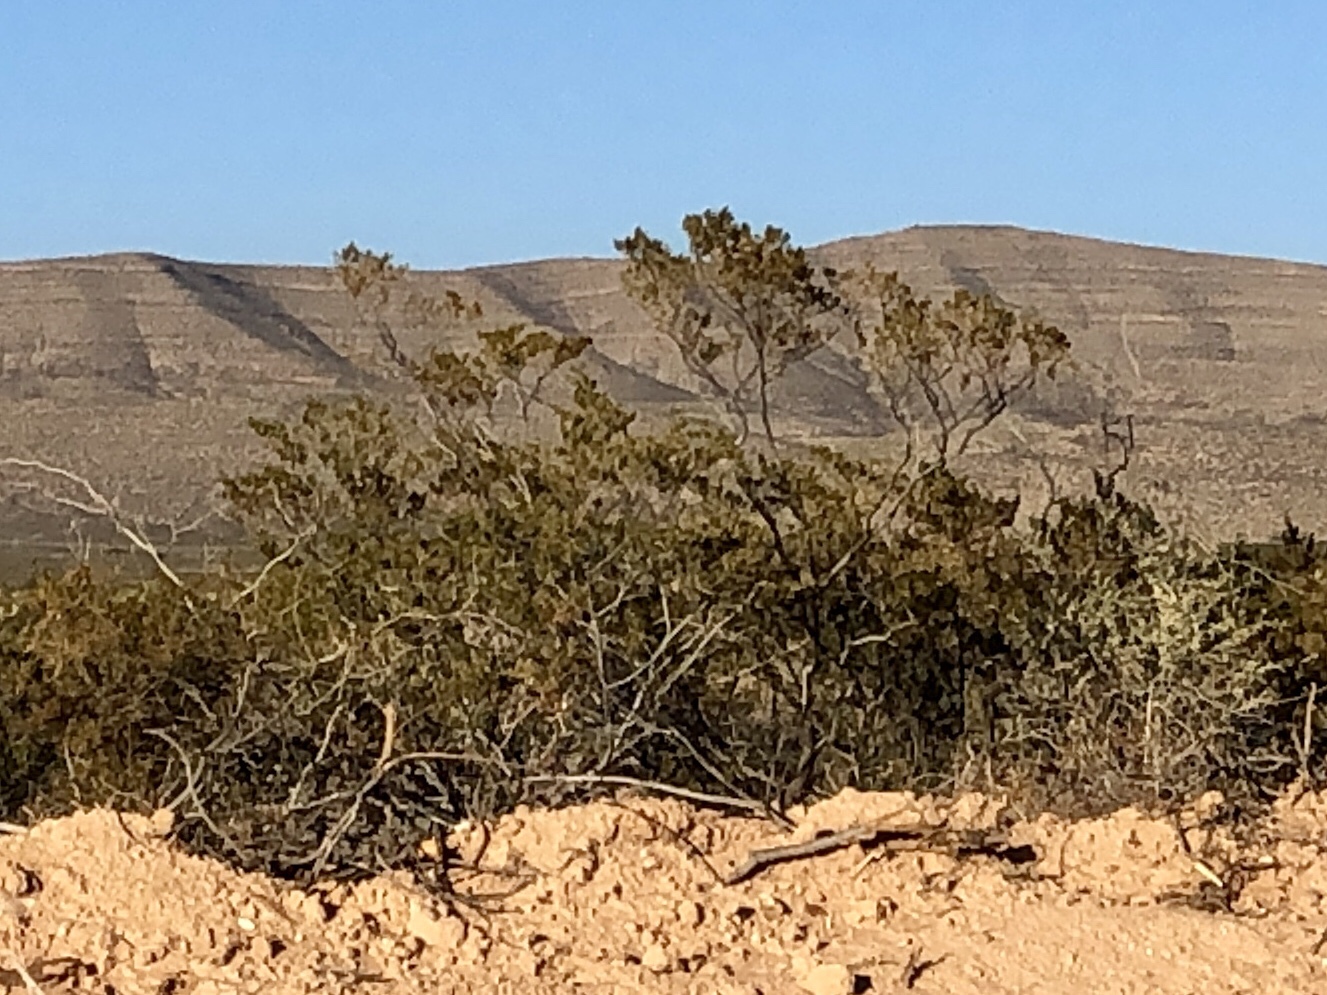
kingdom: Plantae
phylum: Tracheophyta
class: Magnoliopsida
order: Zygophyllales
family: Zygophyllaceae
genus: Larrea
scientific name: Larrea tridentata
